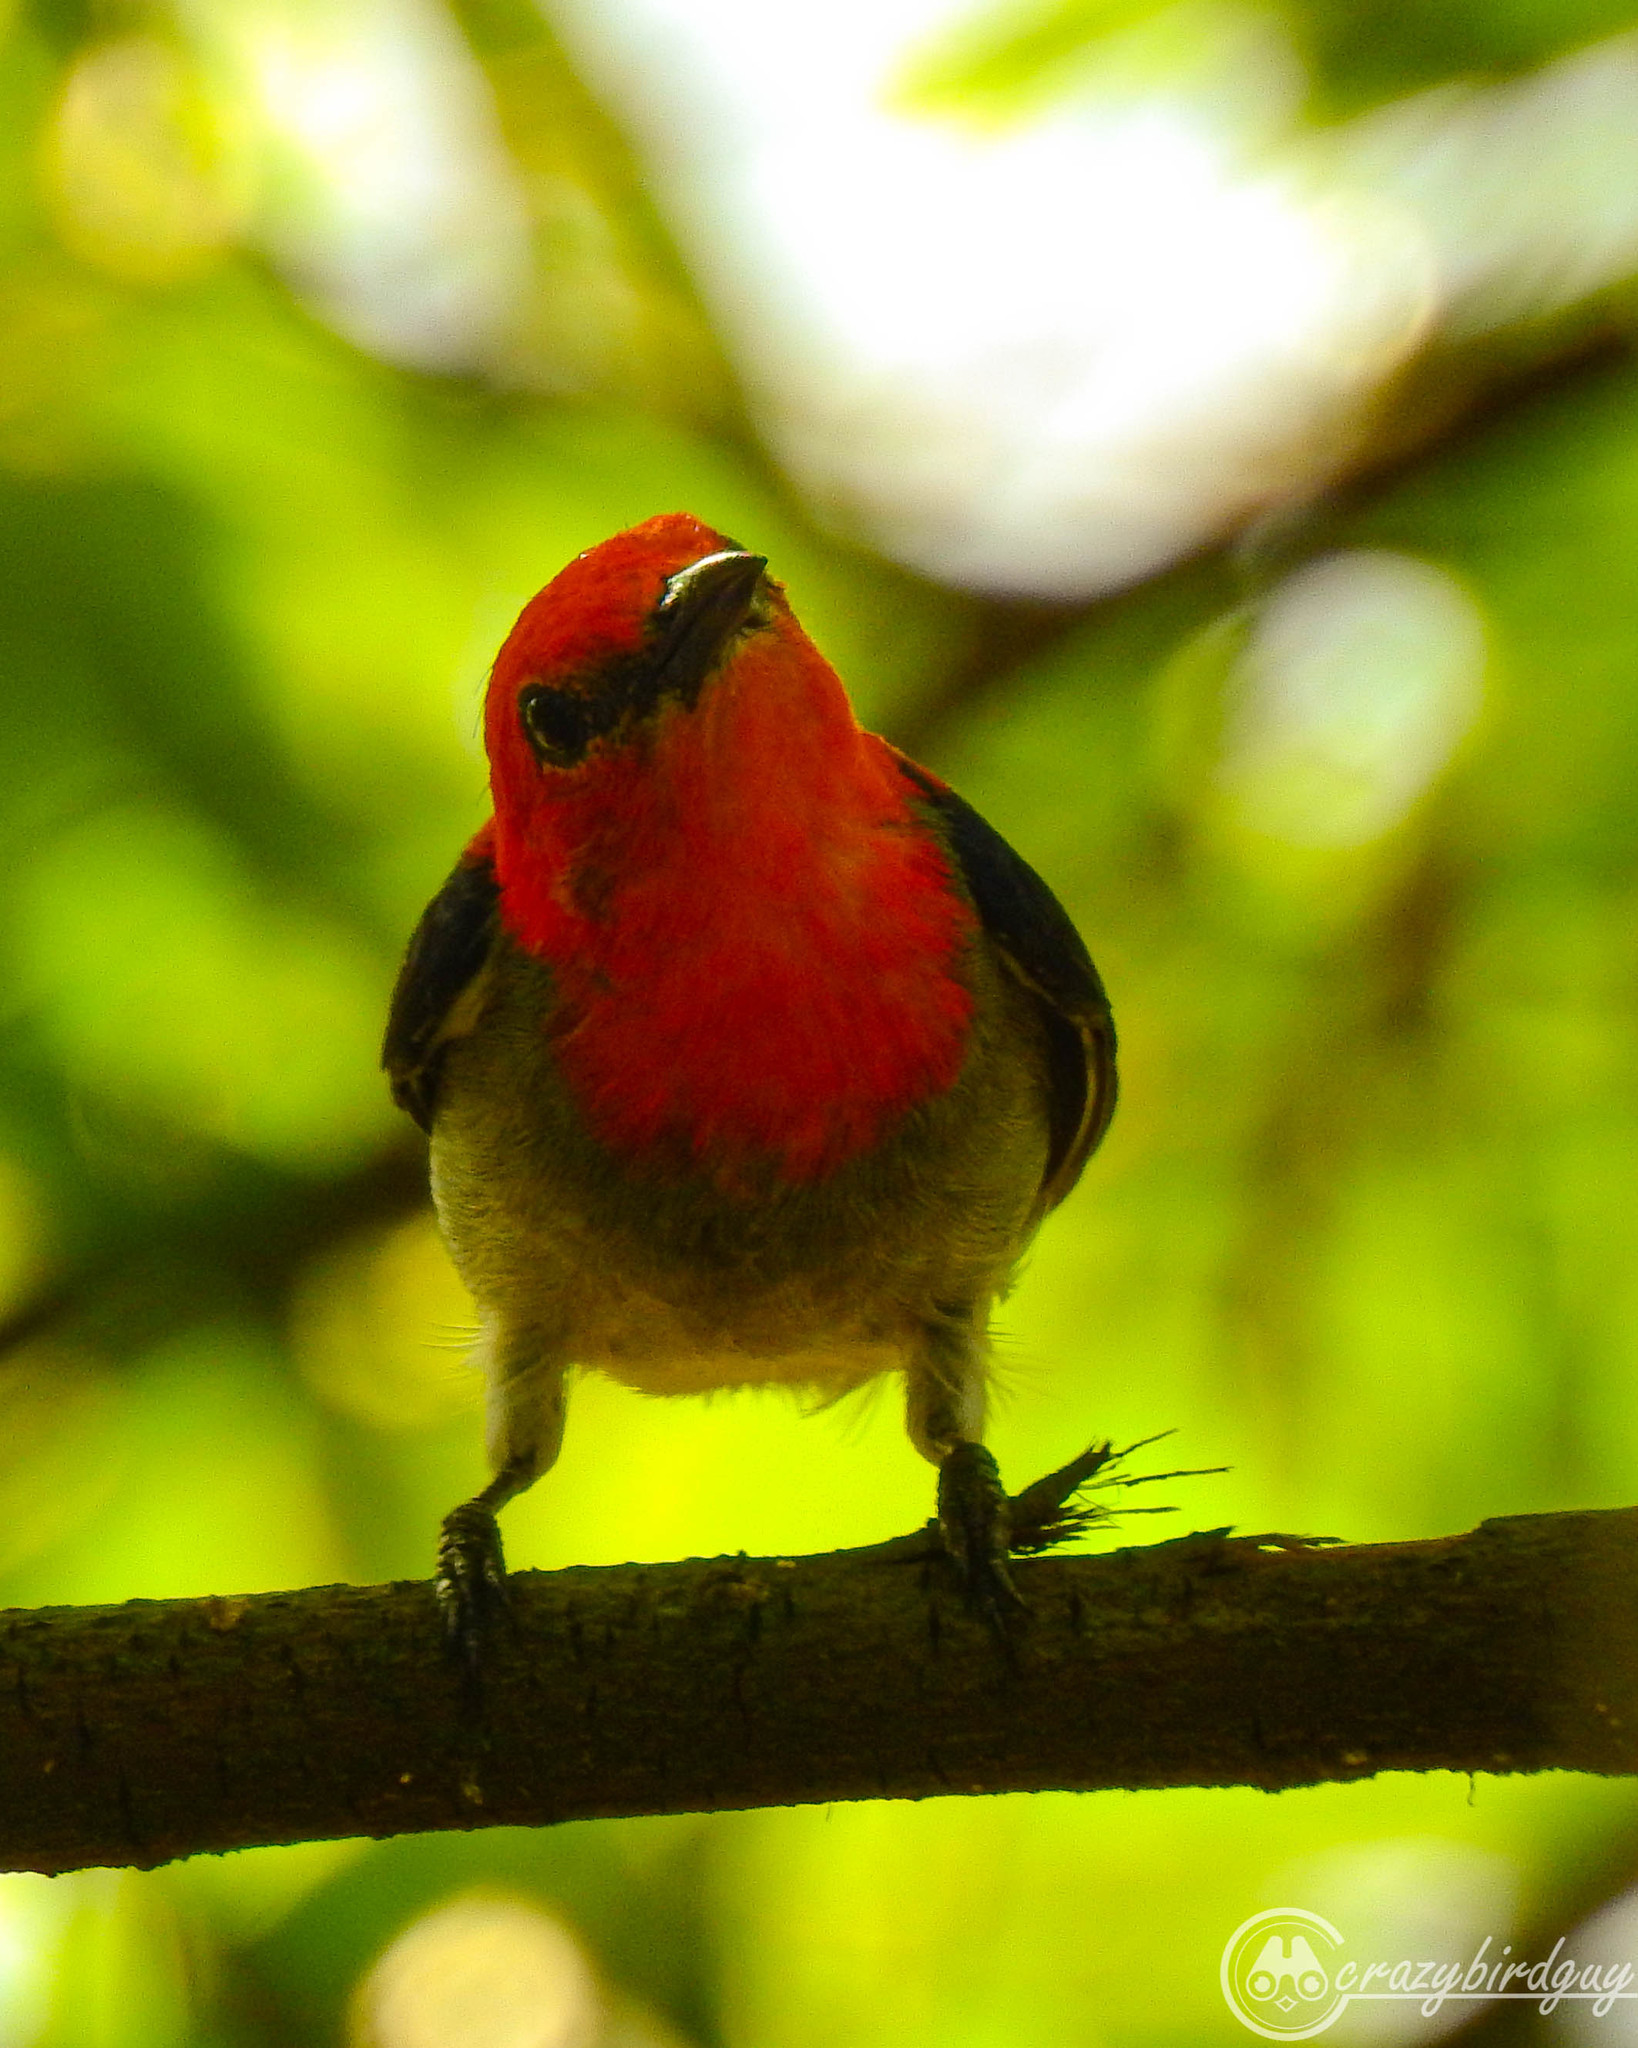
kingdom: Animalia
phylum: Chordata
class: Aves
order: Passeriformes
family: Dicaeidae
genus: Dicaeum
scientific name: Dicaeum trochileum
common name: Scarlet-headed flowerpecker
